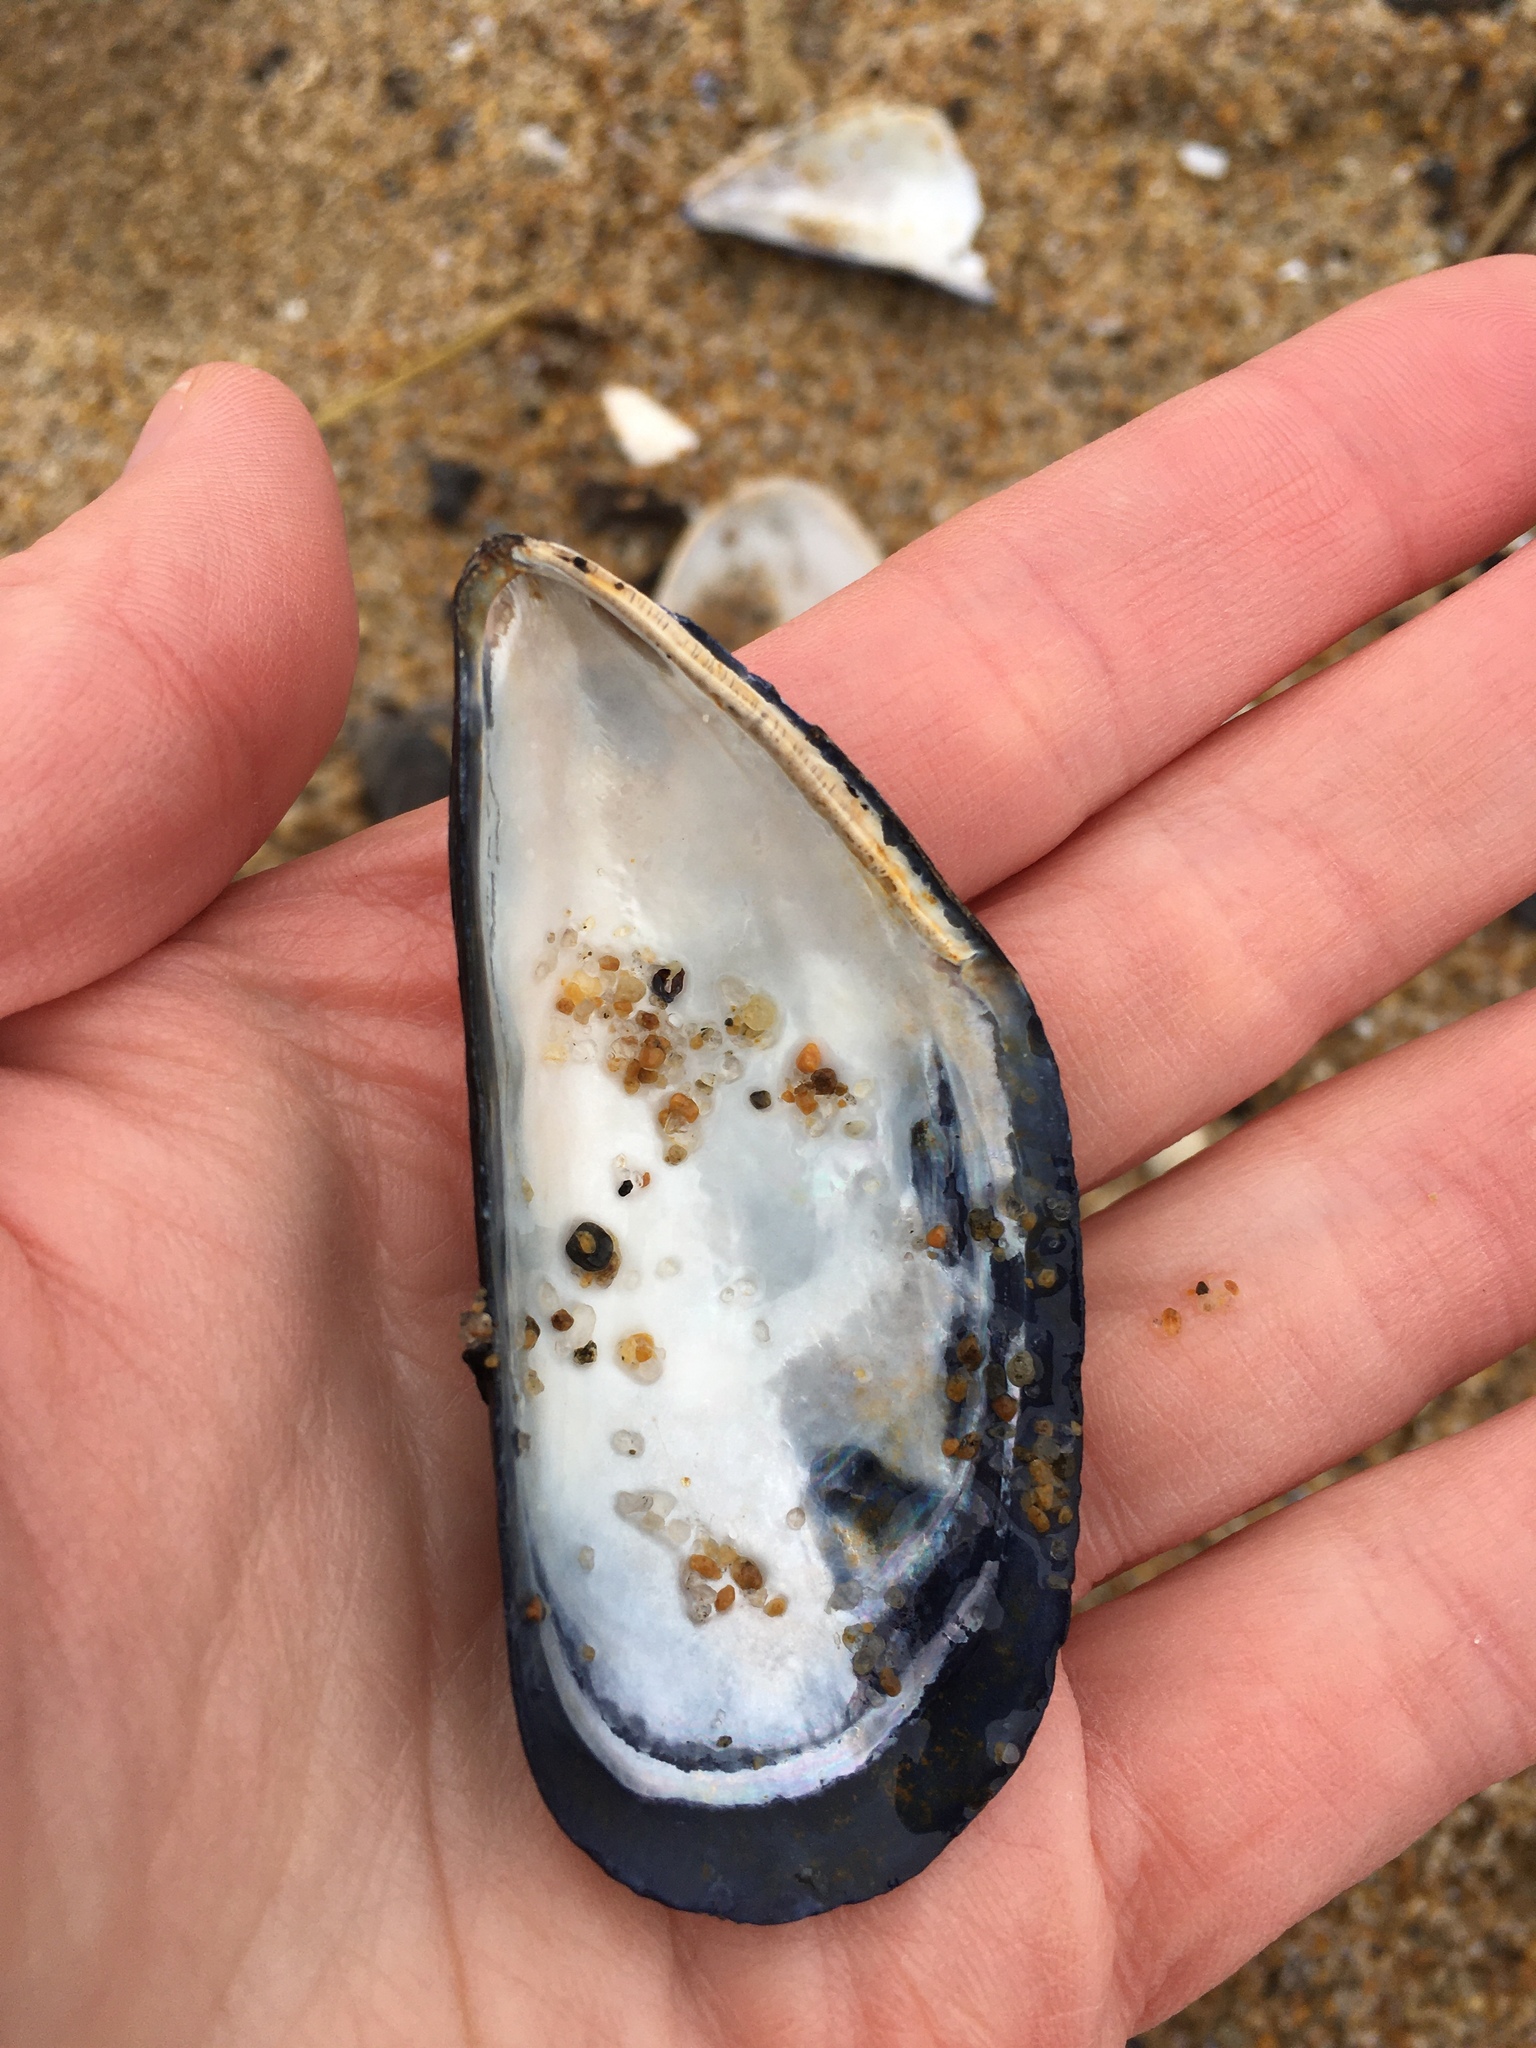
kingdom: Animalia
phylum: Mollusca
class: Bivalvia
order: Mytilida
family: Mytilidae
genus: Mytilus
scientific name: Mytilus edulis
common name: Blue mussel
